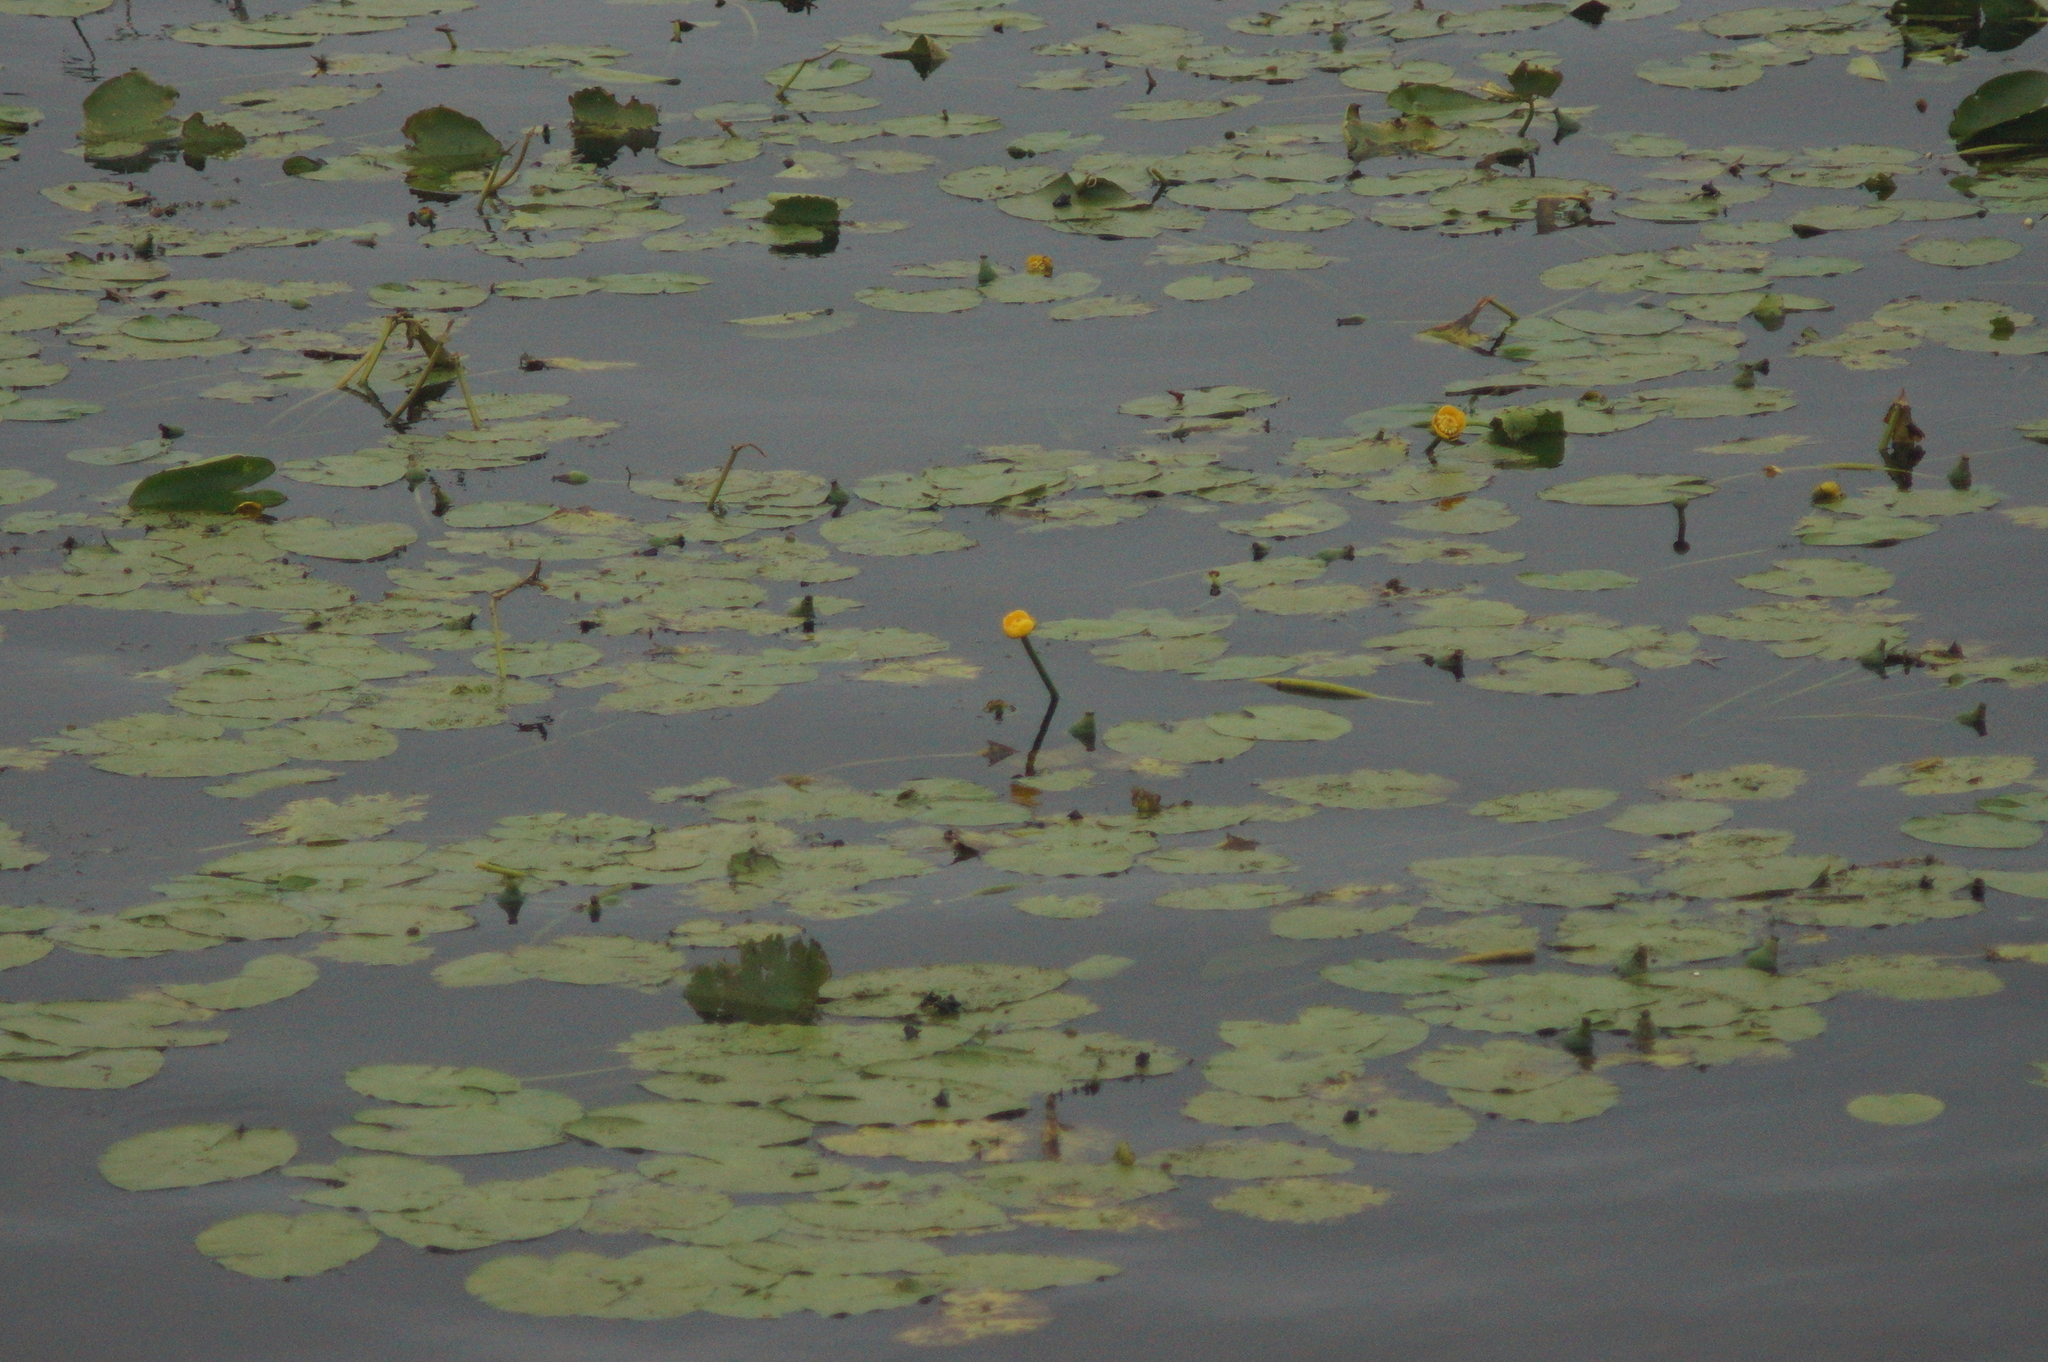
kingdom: Plantae
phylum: Tracheophyta
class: Magnoliopsida
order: Nymphaeales
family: Nymphaeaceae
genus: Nuphar
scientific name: Nuphar lutea
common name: Yellow water-lily
